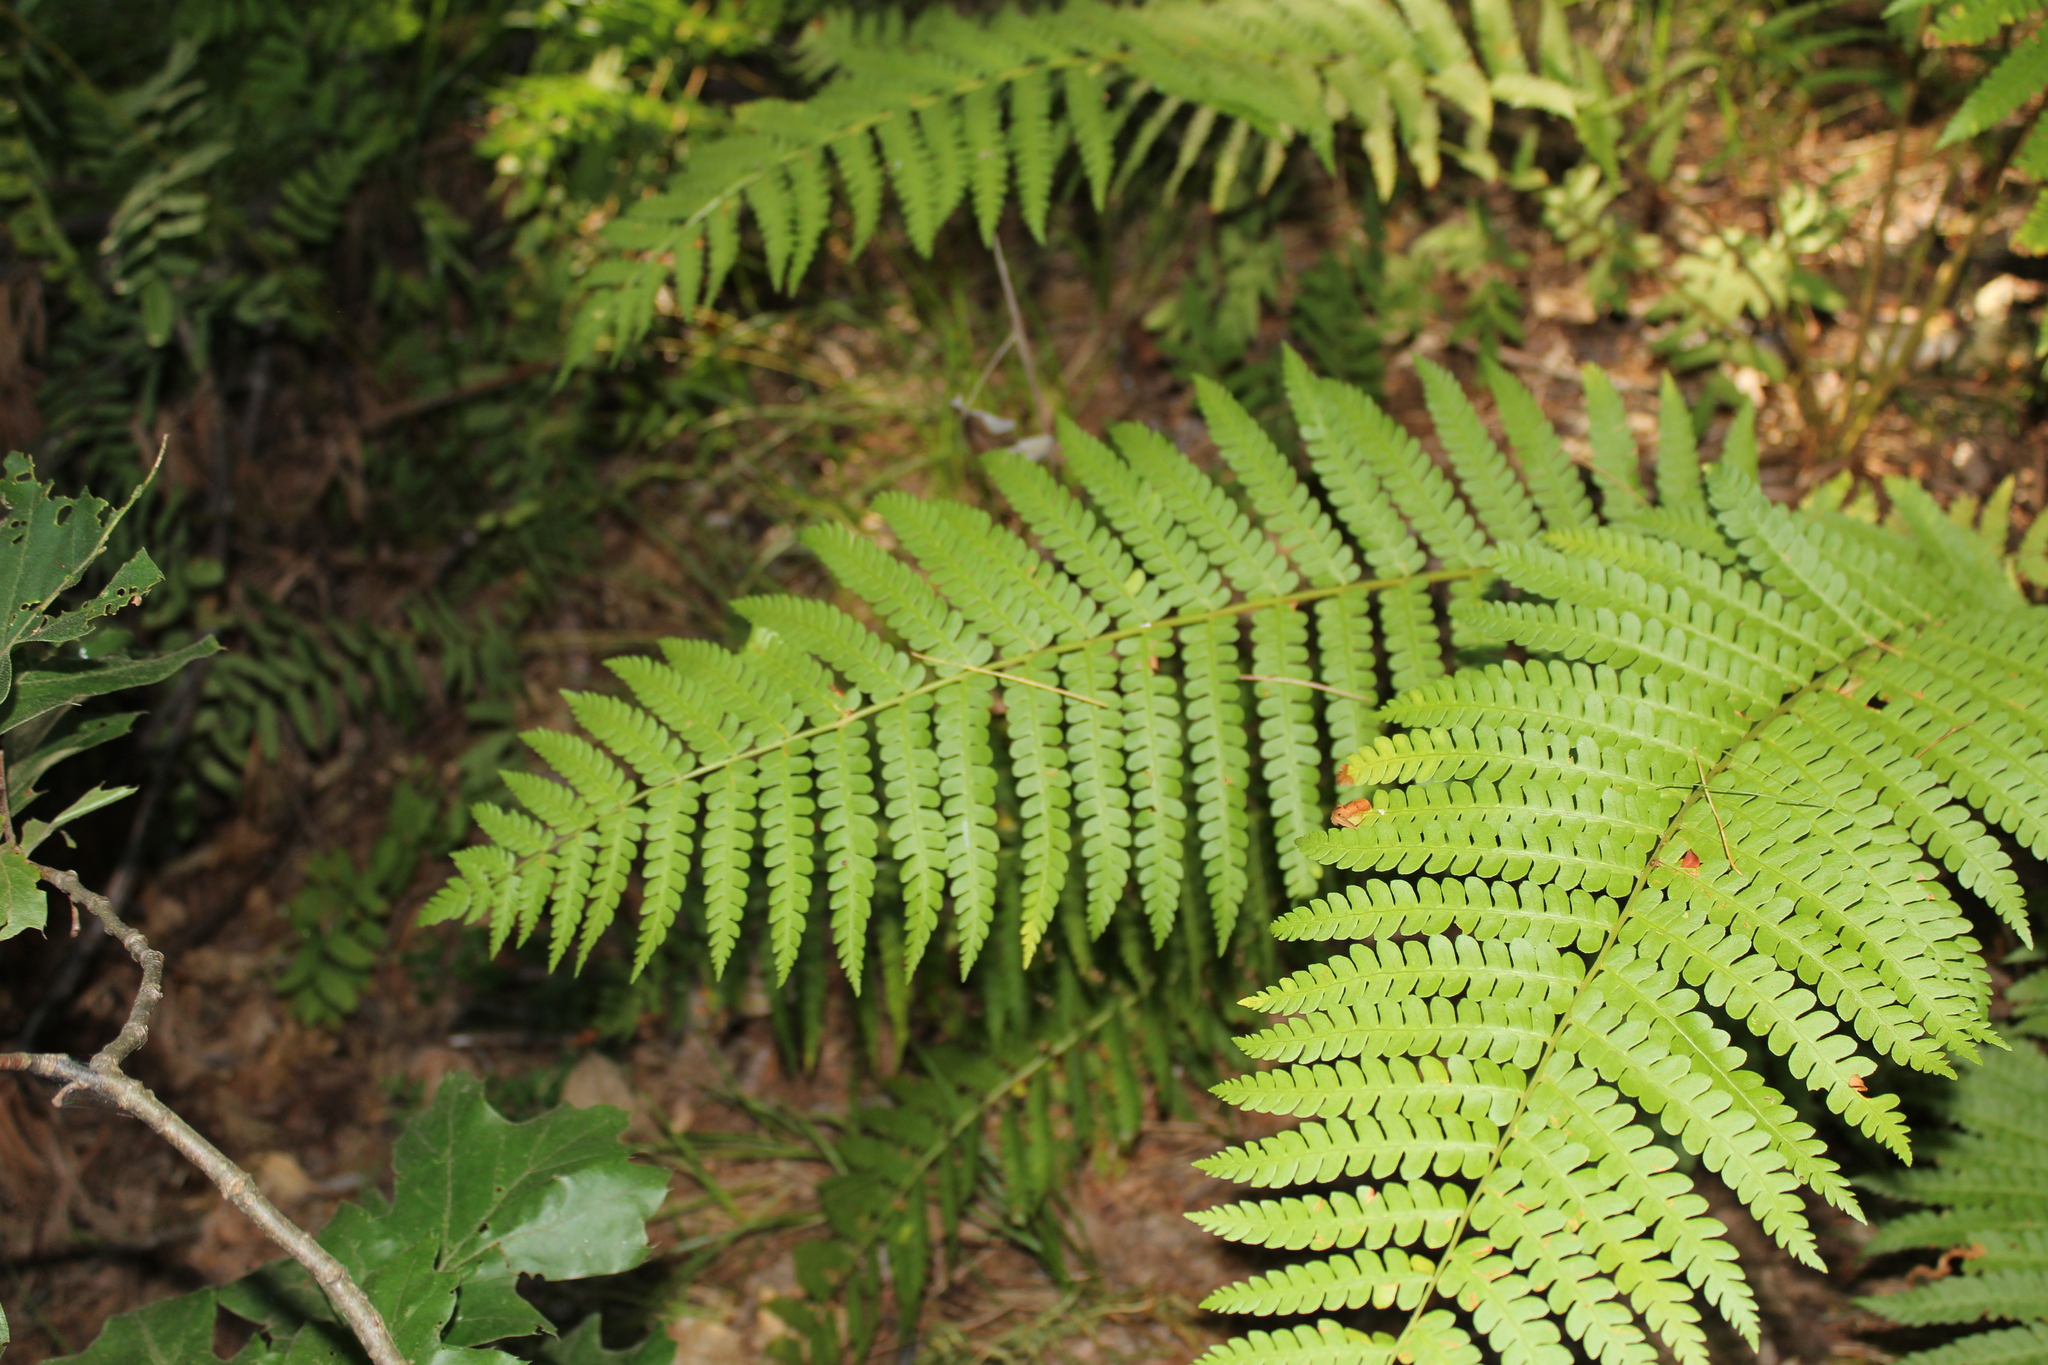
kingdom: Plantae
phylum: Tracheophyta
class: Polypodiopsida
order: Osmundales
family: Osmundaceae
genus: Osmundastrum
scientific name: Osmundastrum cinnamomeum
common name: Cinnamon fern
